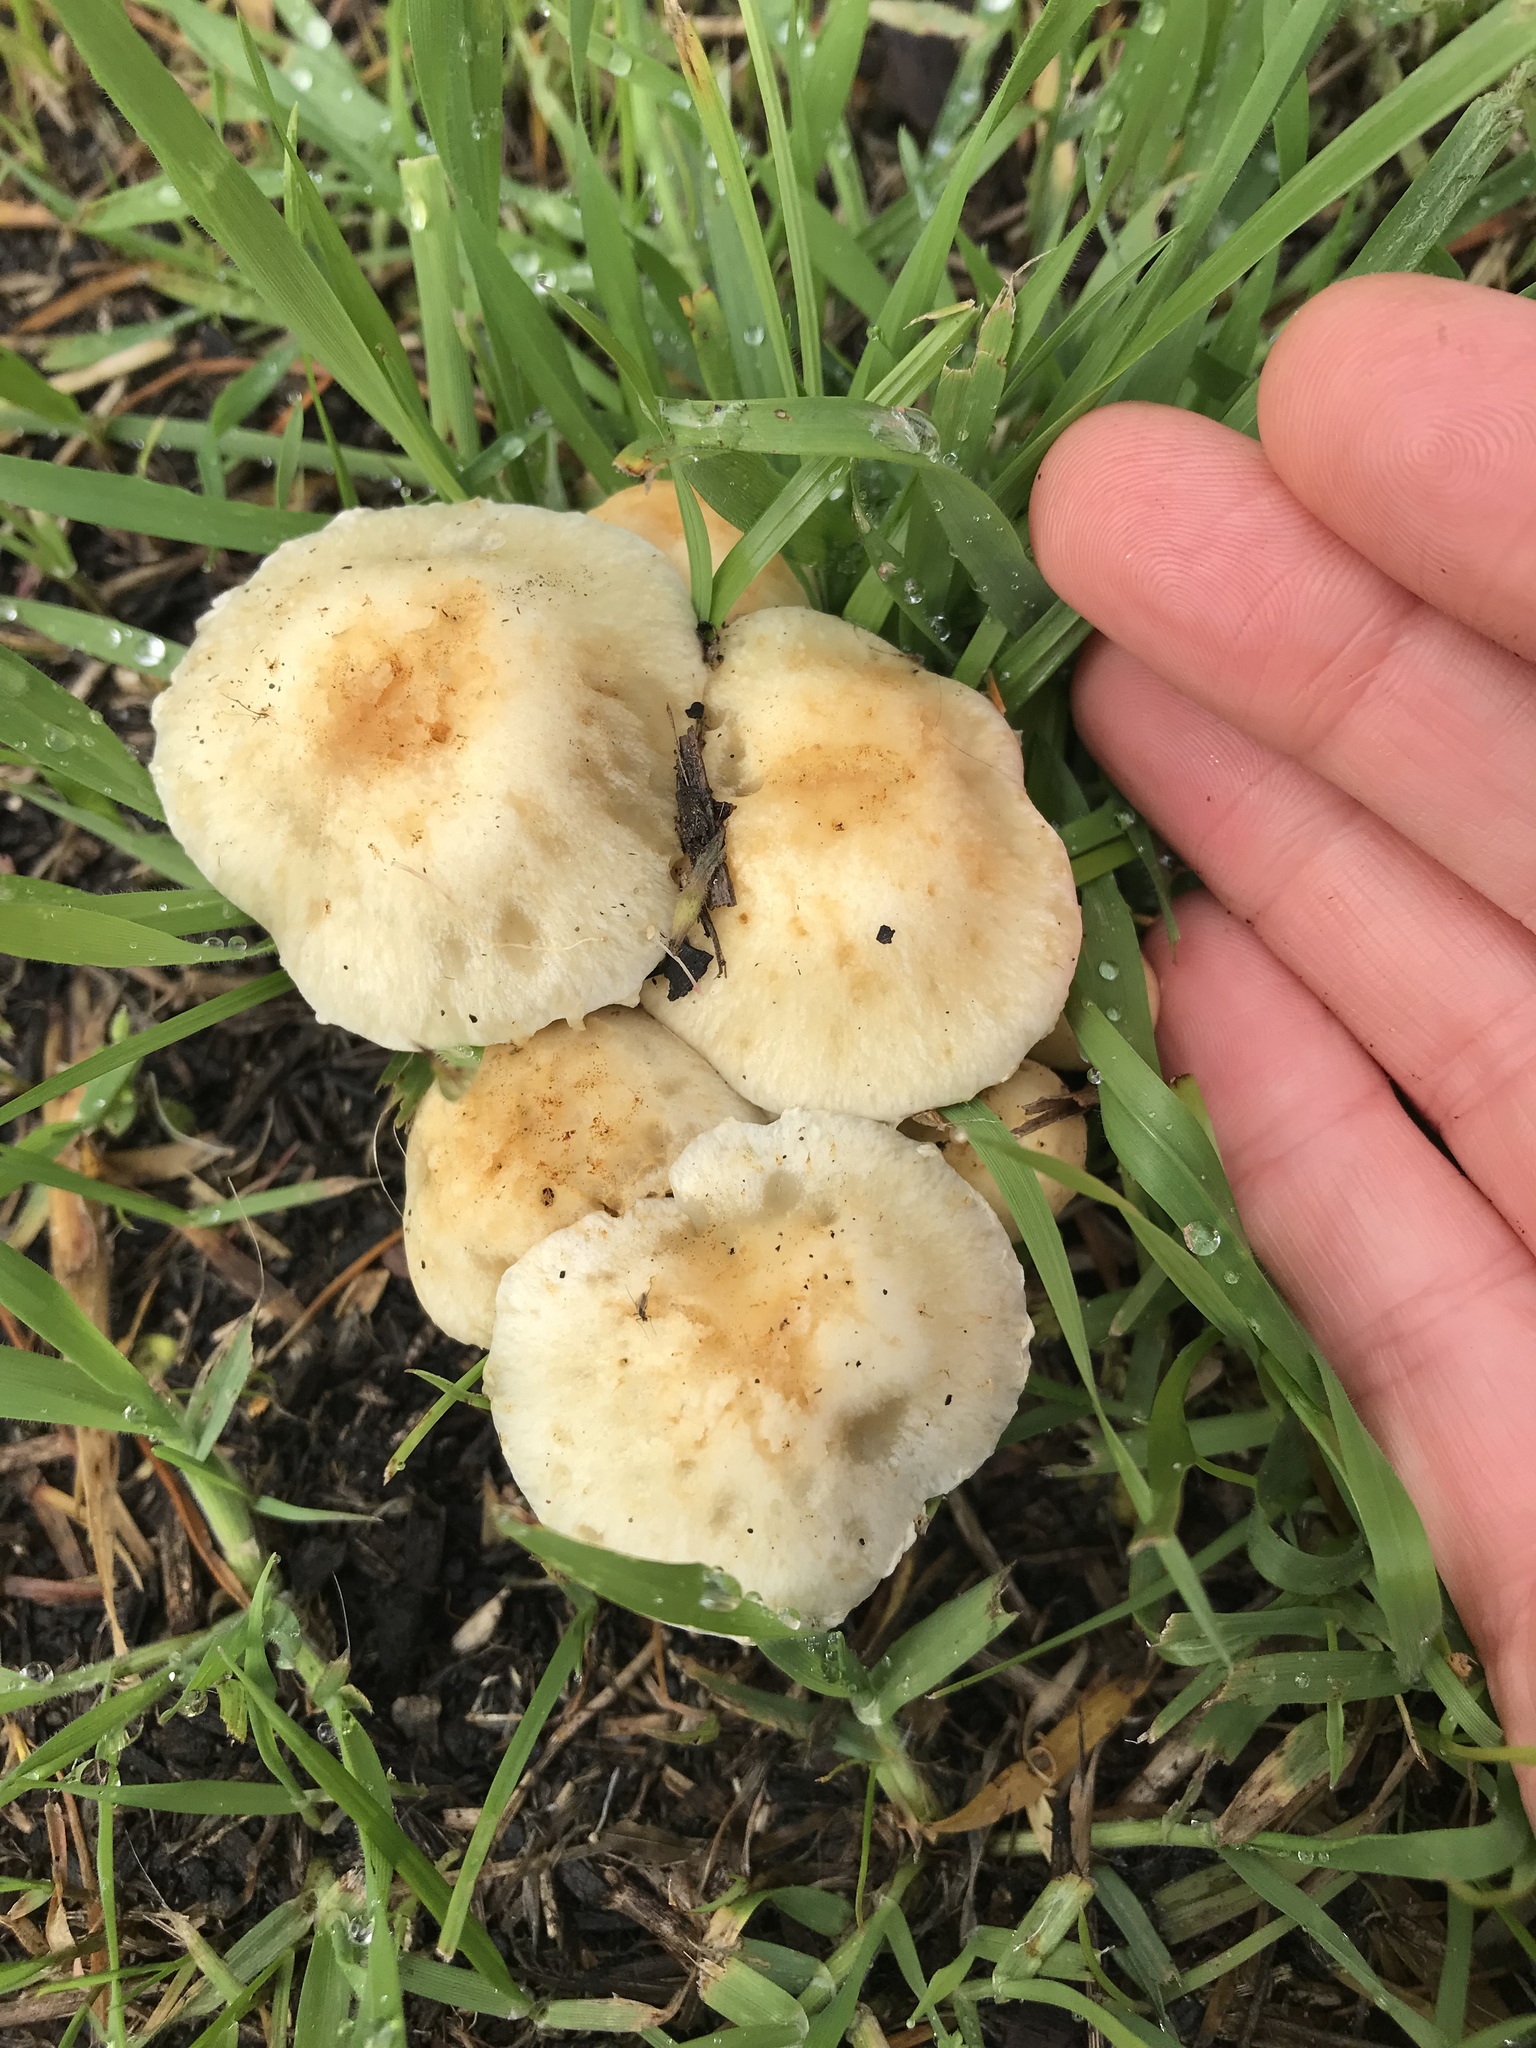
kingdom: Fungi
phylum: Basidiomycota
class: Agaricomycetes
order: Agaricales
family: Strophariaceae
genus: Leratiomyces
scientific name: Leratiomyces percevalii
